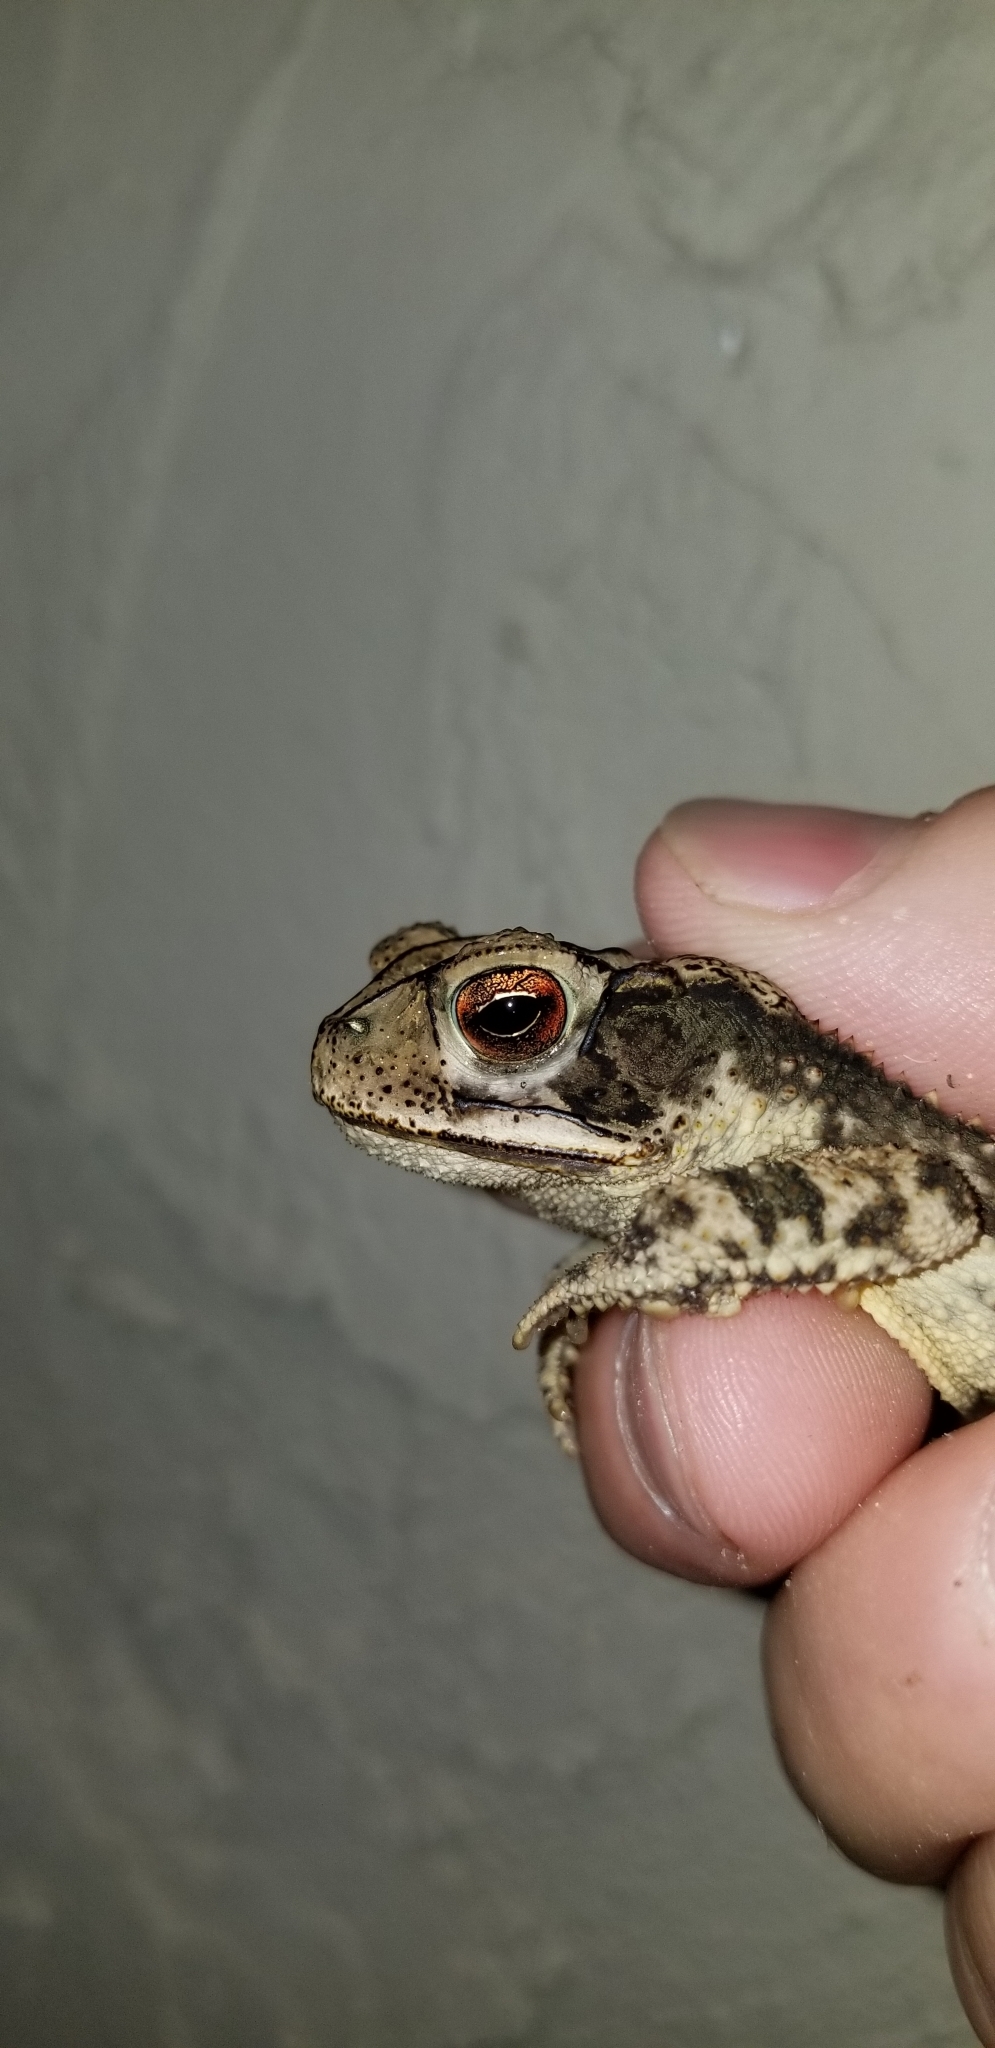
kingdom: Animalia
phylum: Chordata
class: Amphibia
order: Anura
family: Bufonidae
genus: Incilius
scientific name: Incilius nebulifer
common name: Gulf coast toad
